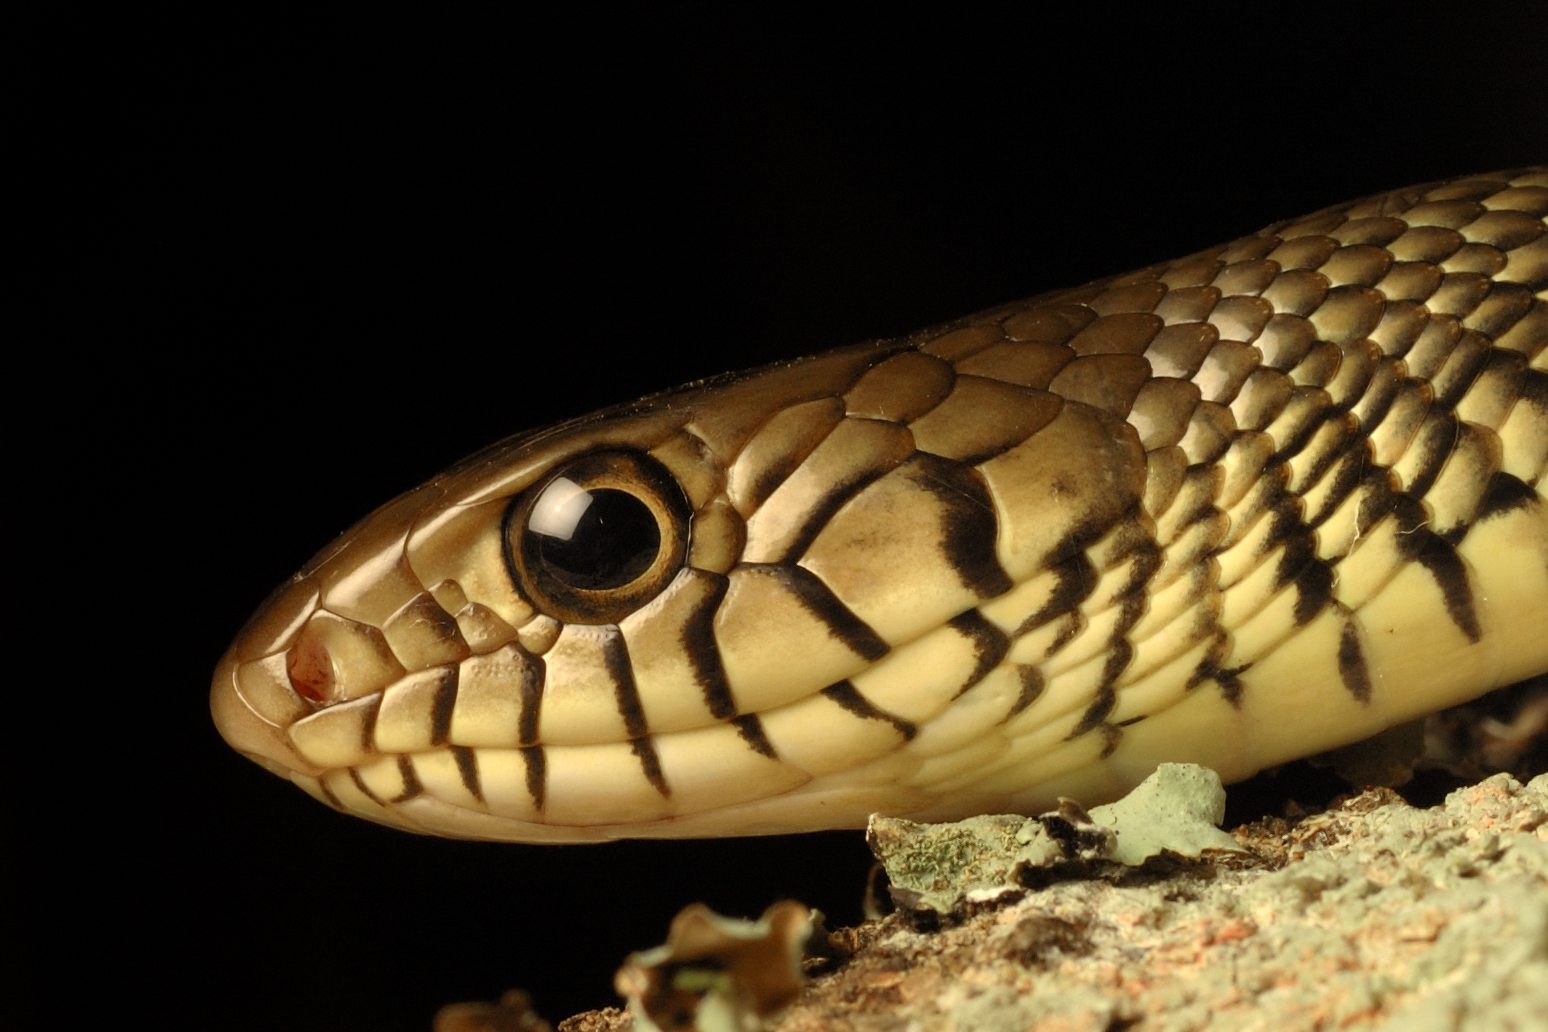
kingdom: Animalia
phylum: Chordata
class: Squamata
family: Colubridae
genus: Ptyas
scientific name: Ptyas mucosa
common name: Oriental ratsnake
